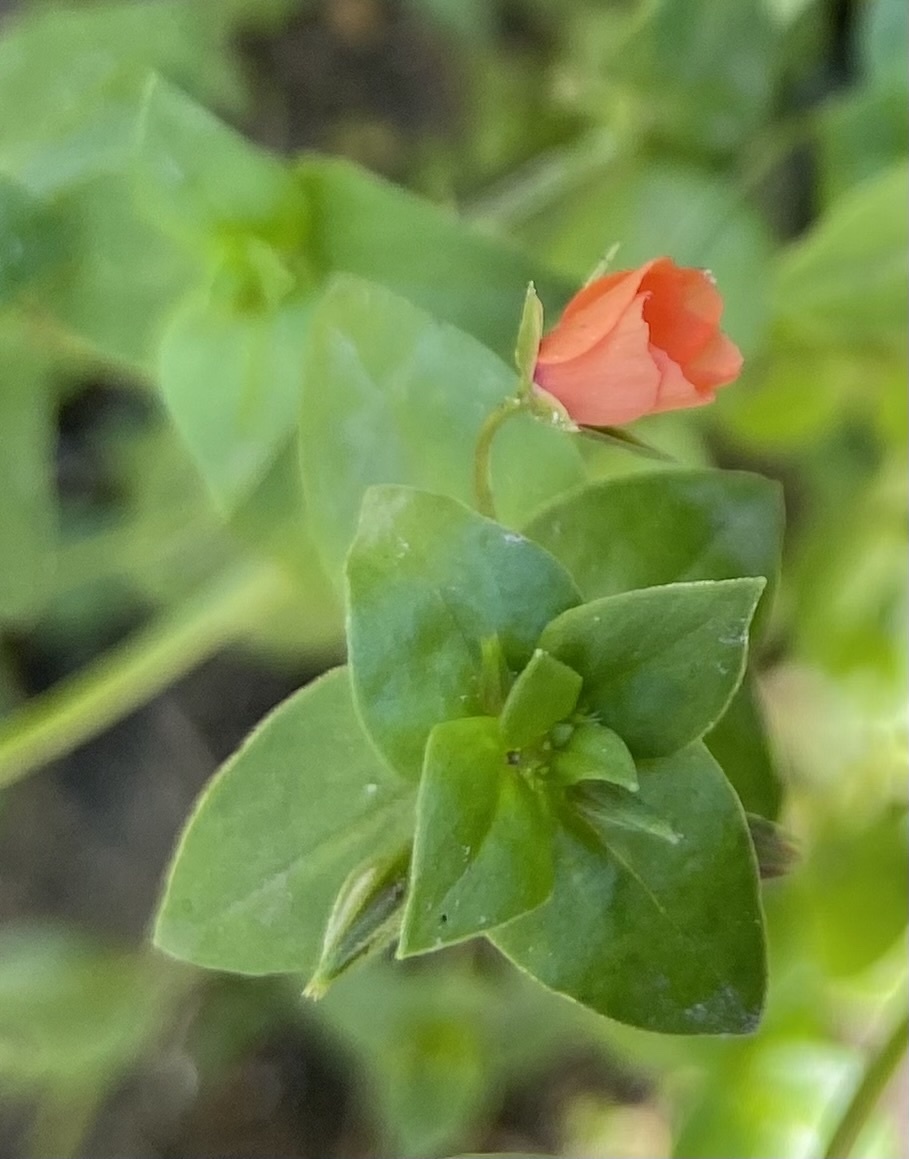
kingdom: Plantae
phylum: Tracheophyta
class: Magnoliopsida
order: Ericales
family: Primulaceae
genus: Lysimachia
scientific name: Lysimachia arvensis
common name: Scarlet pimpernel
